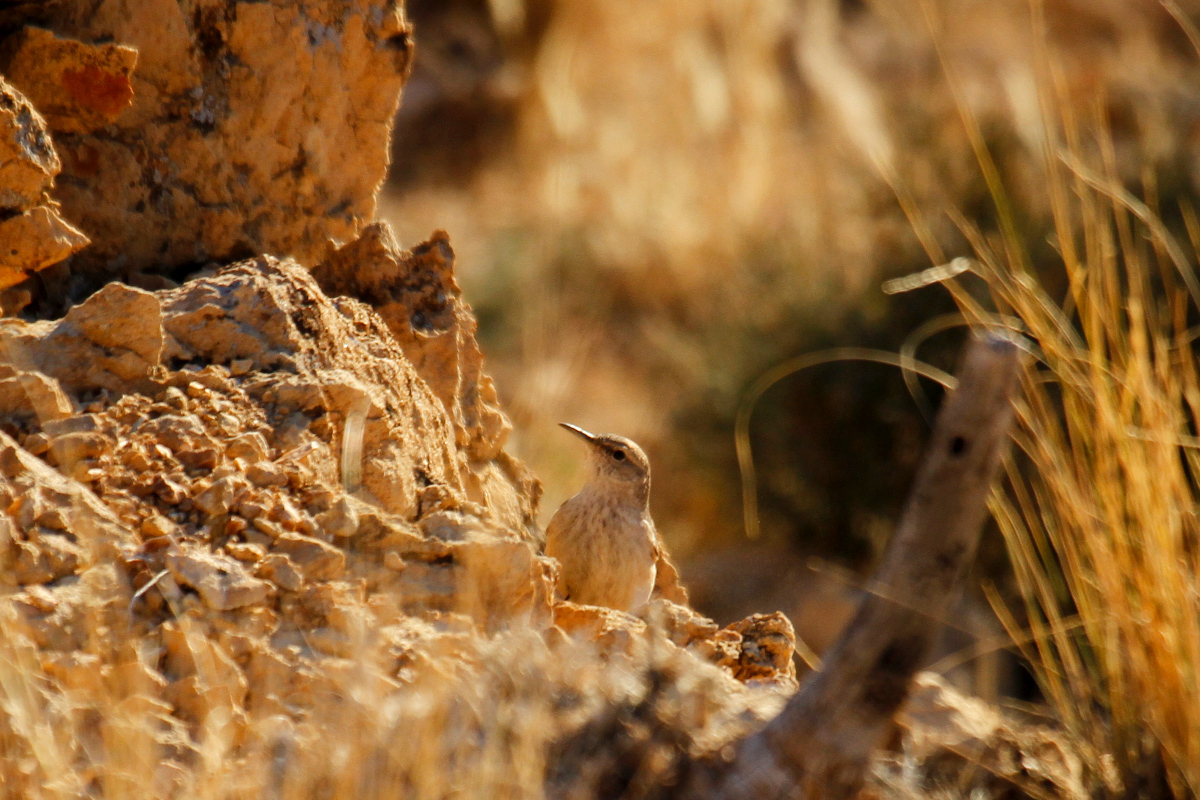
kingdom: Animalia
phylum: Chordata
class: Aves
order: Passeriformes
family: Troglodytidae
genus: Salpinctes
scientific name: Salpinctes obsoletus
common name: Rock wren
